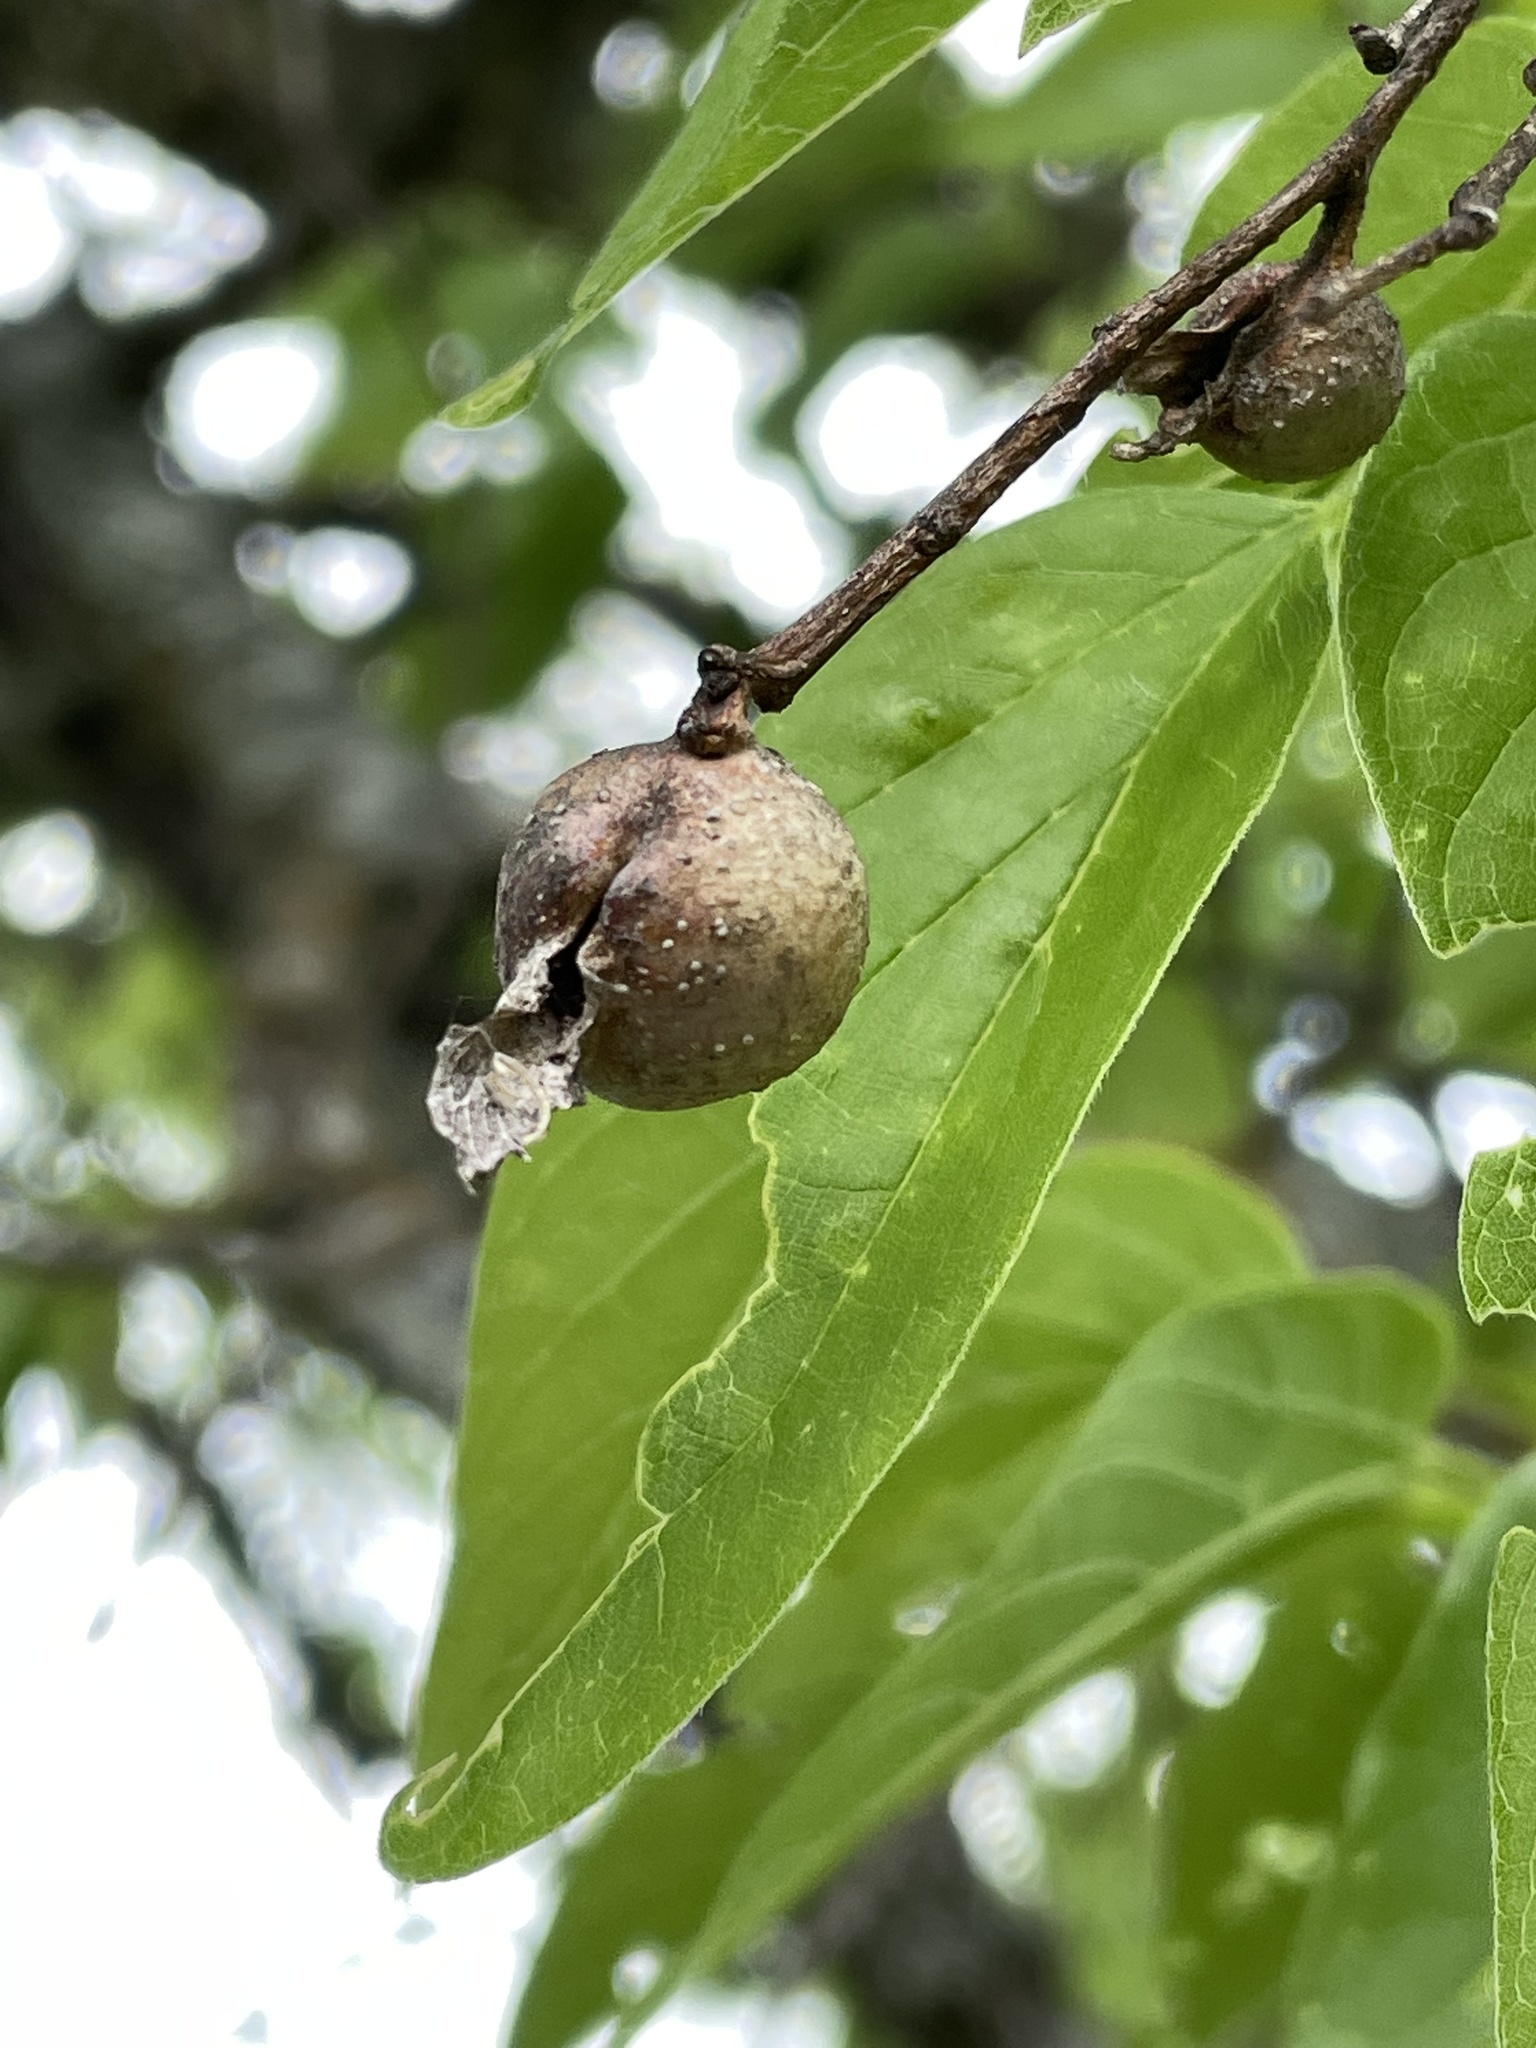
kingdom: Animalia
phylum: Arthropoda
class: Insecta
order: Hemiptera
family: Aphalaridae
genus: Pachypsylla
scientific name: Pachypsylla venusta
